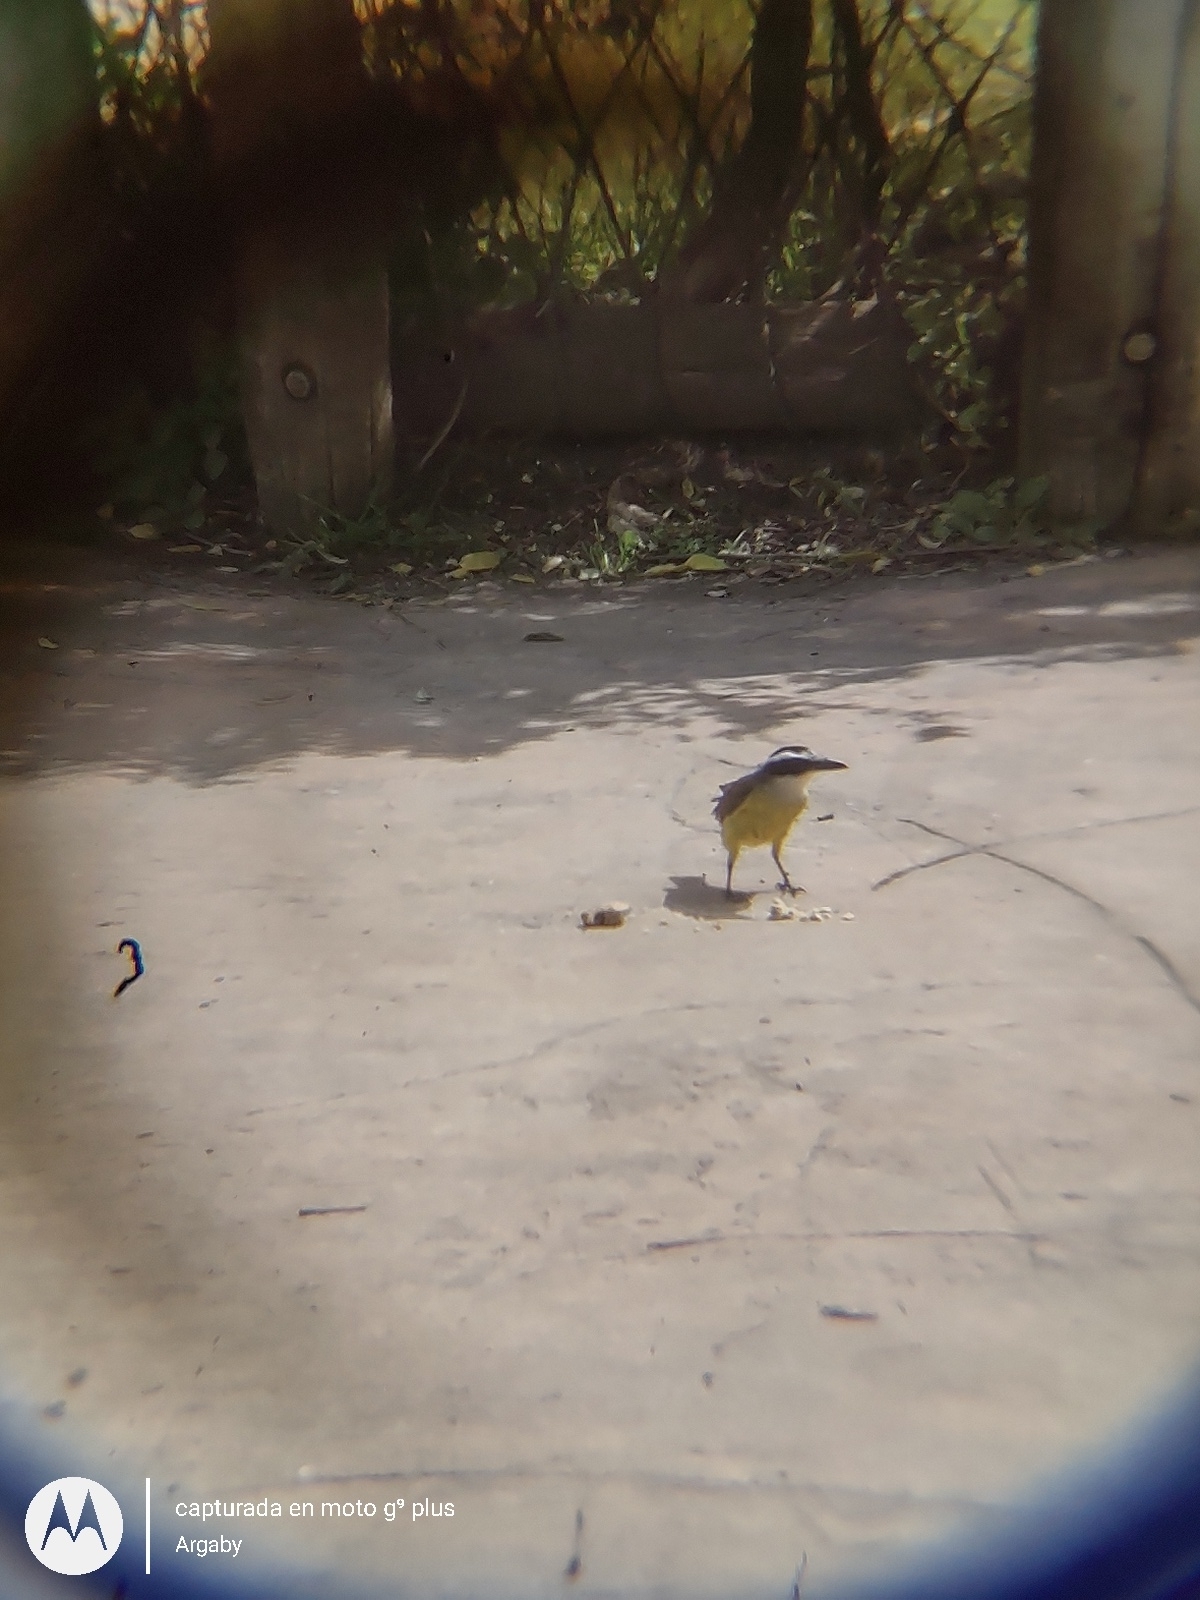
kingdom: Animalia
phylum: Chordata
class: Aves
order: Passeriformes
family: Tyrannidae
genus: Pitangus
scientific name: Pitangus sulphuratus
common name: Great kiskadee
